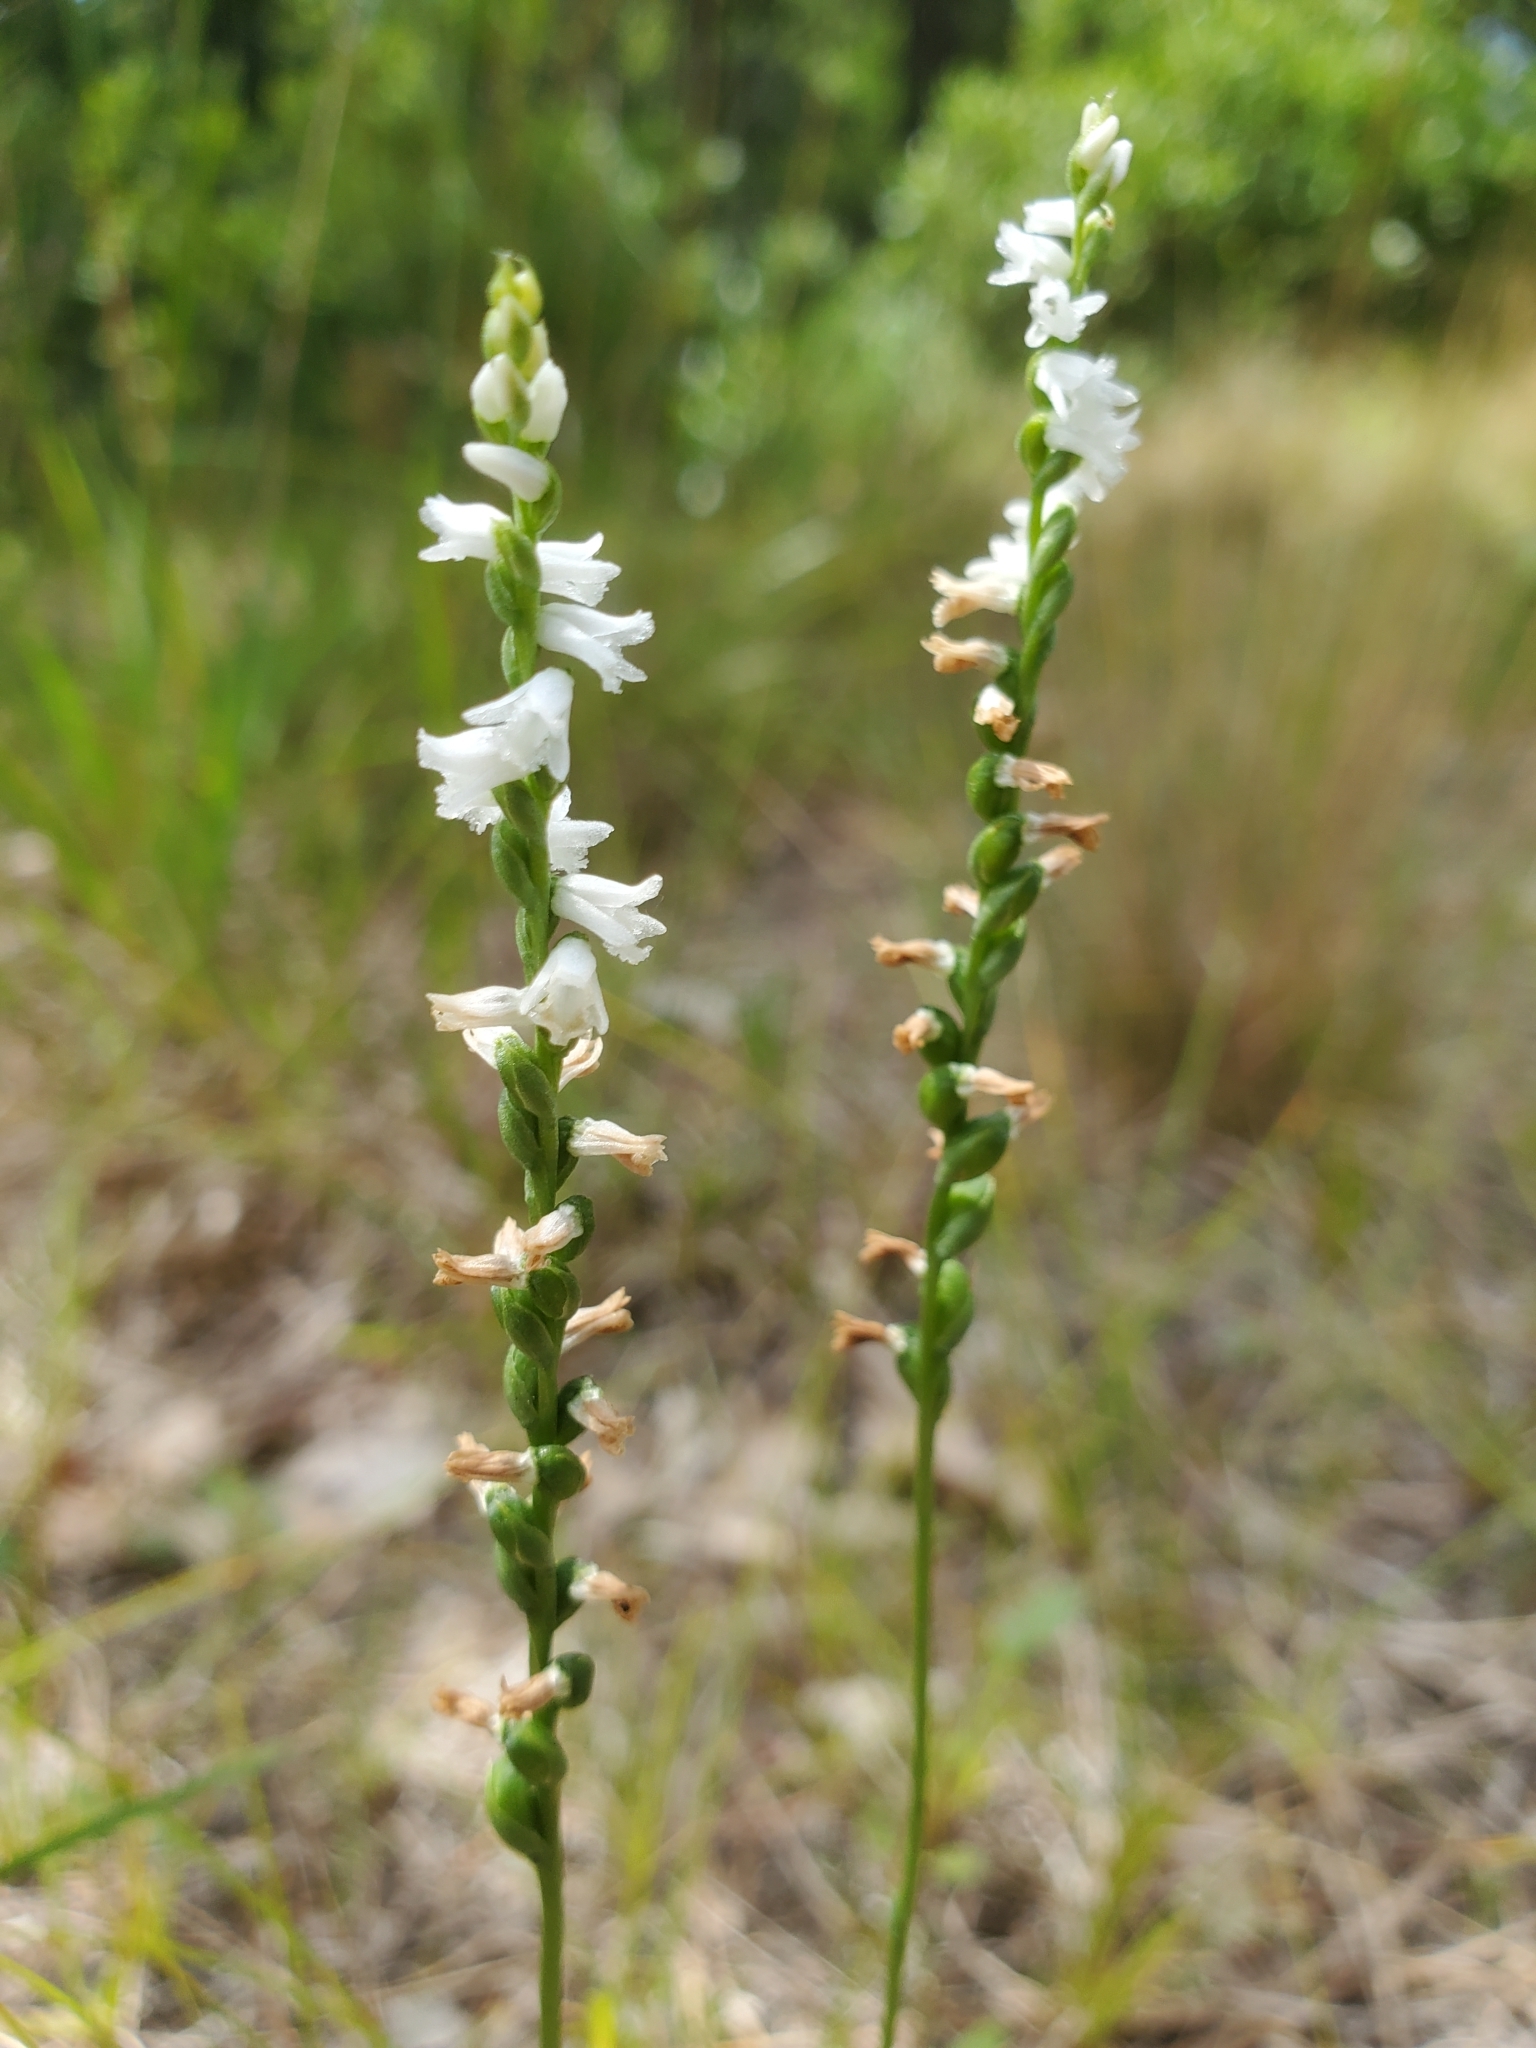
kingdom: Plantae
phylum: Tracheophyta
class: Liliopsida
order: Asparagales
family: Orchidaceae
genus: Spiranthes
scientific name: Spiranthes tuberosa
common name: Little ladies'-tresses
